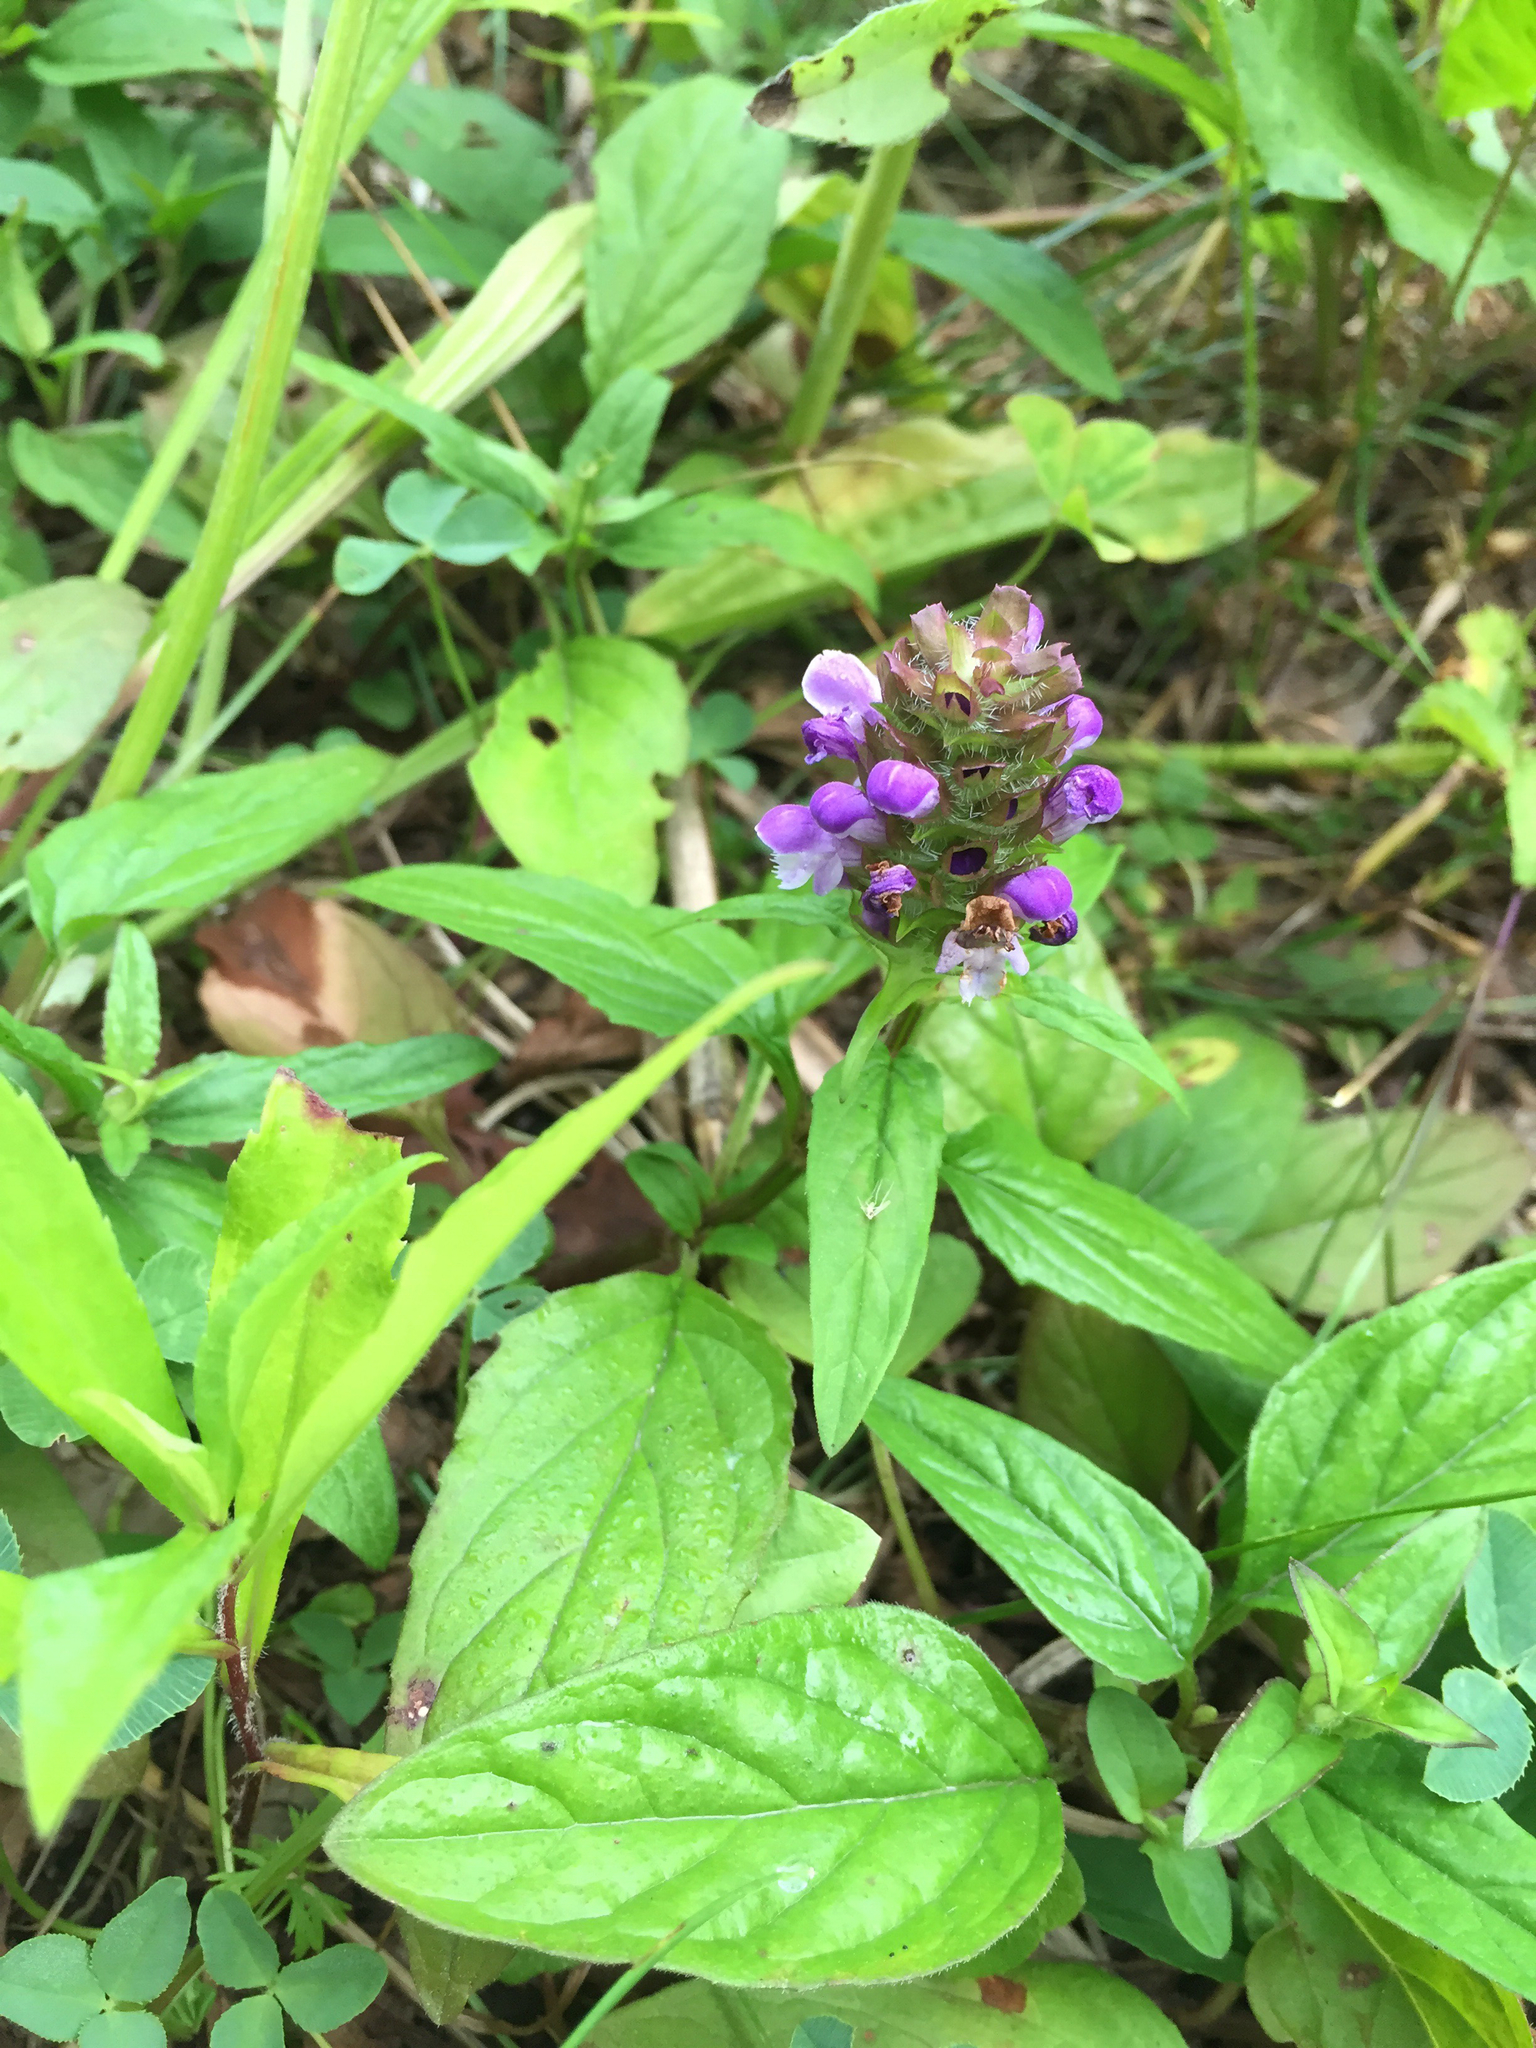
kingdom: Plantae
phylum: Tracheophyta
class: Magnoliopsida
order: Lamiales
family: Lamiaceae
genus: Prunella
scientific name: Prunella vulgaris
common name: Heal-all
